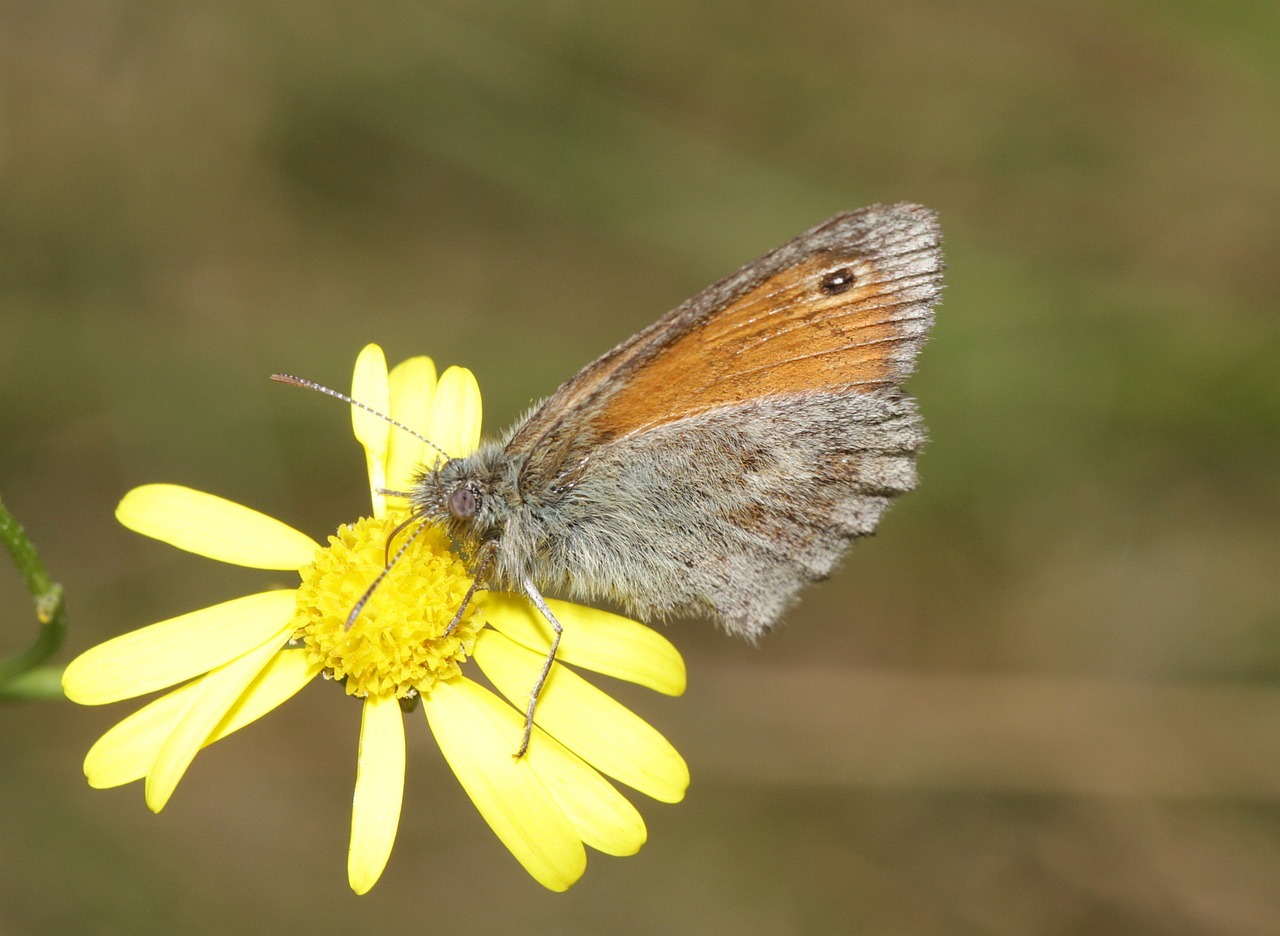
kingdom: Animalia
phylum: Arthropoda
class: Insecta
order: Lepidoptera
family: Nymphalidae
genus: Coenonympha
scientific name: Coenonympha pamphilus
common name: Small heath
